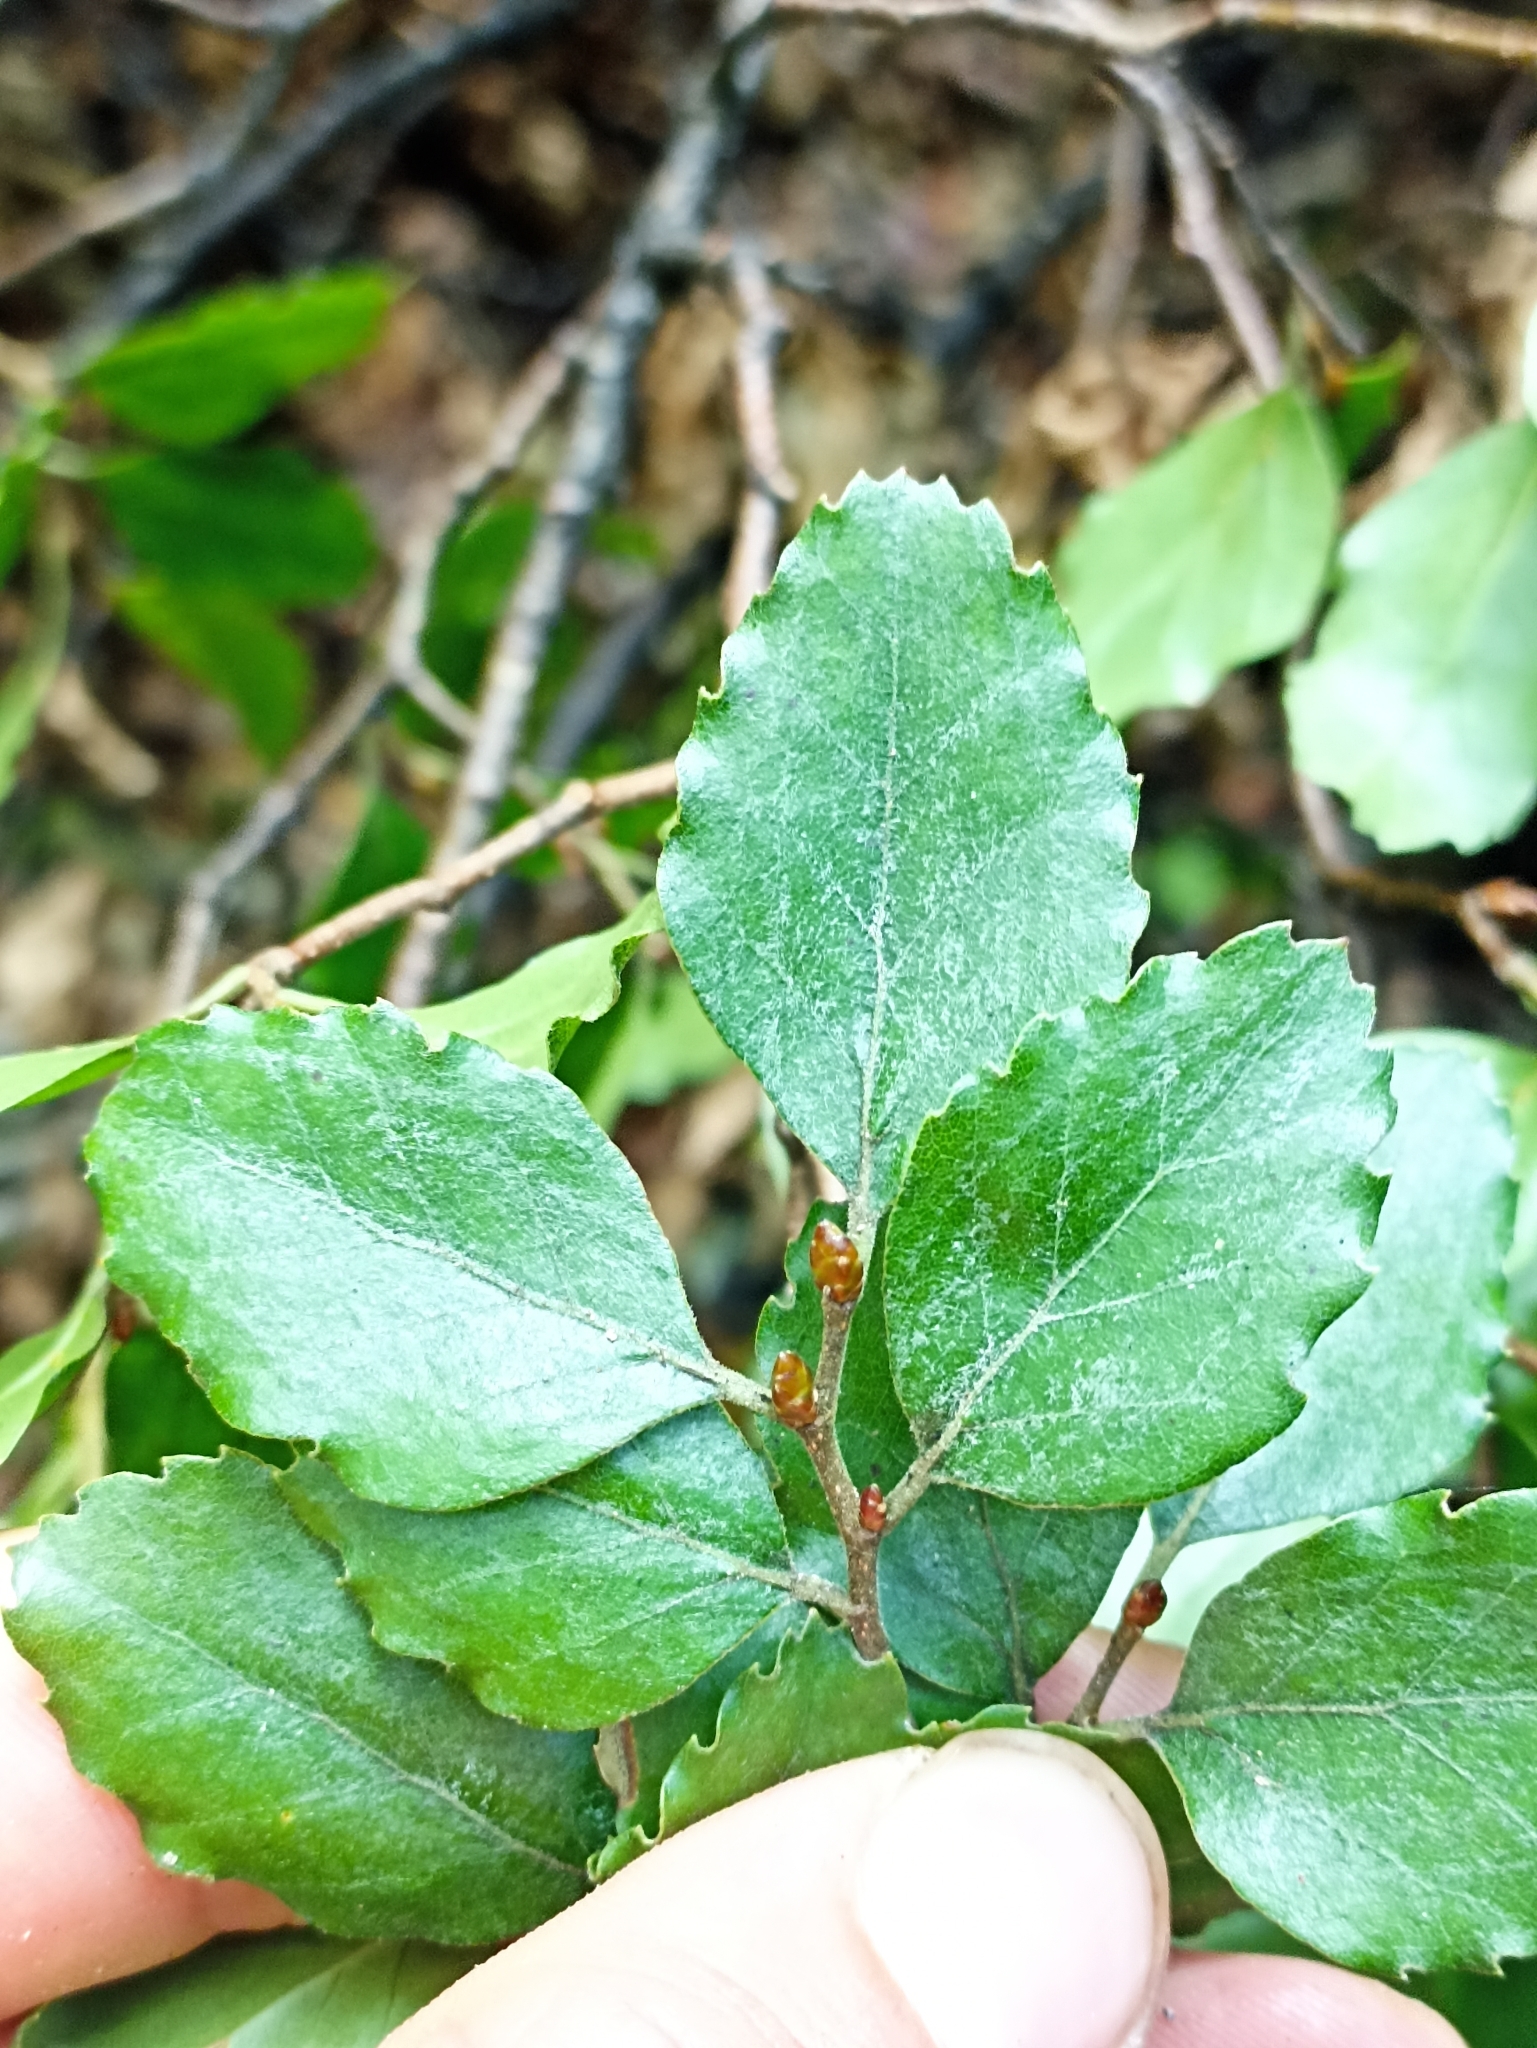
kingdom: Plantae
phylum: Tracheophyta
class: Magnoliopsida
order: Fagales
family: Nothofagaceae
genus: Nothofagus
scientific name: Nothofagus fusca
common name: Red beech
